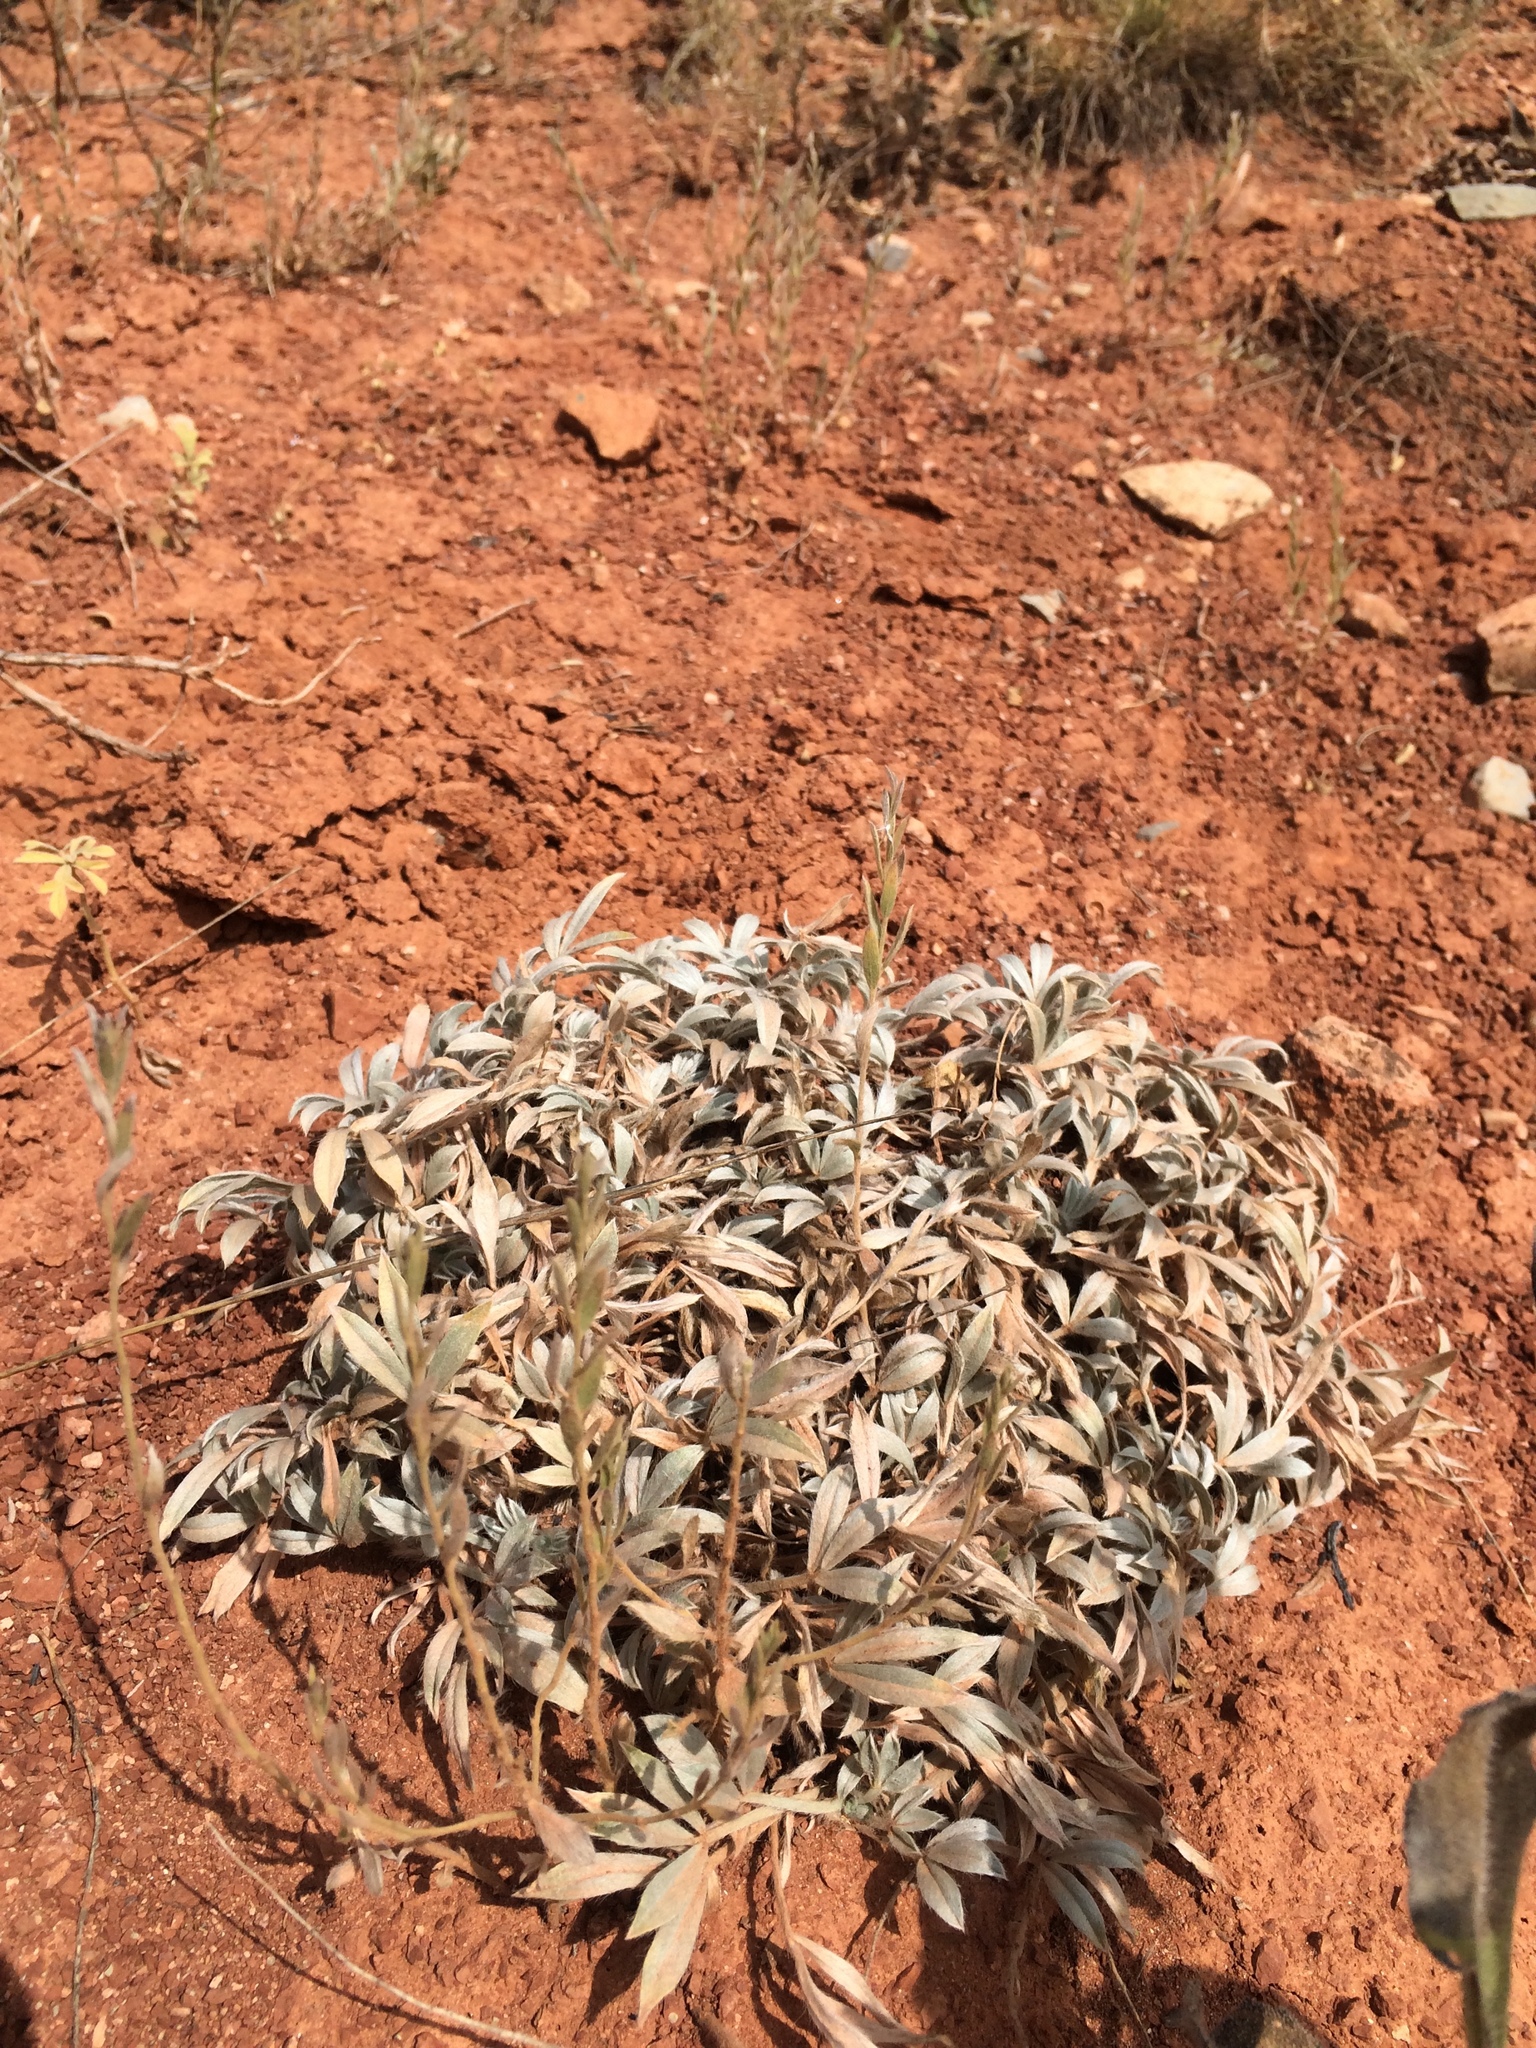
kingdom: Plantae
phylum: Tracheophyta
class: Magnoliopsida
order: Fabales
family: Fabaceae
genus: Astragalus
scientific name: Astragalus tridactylicus
